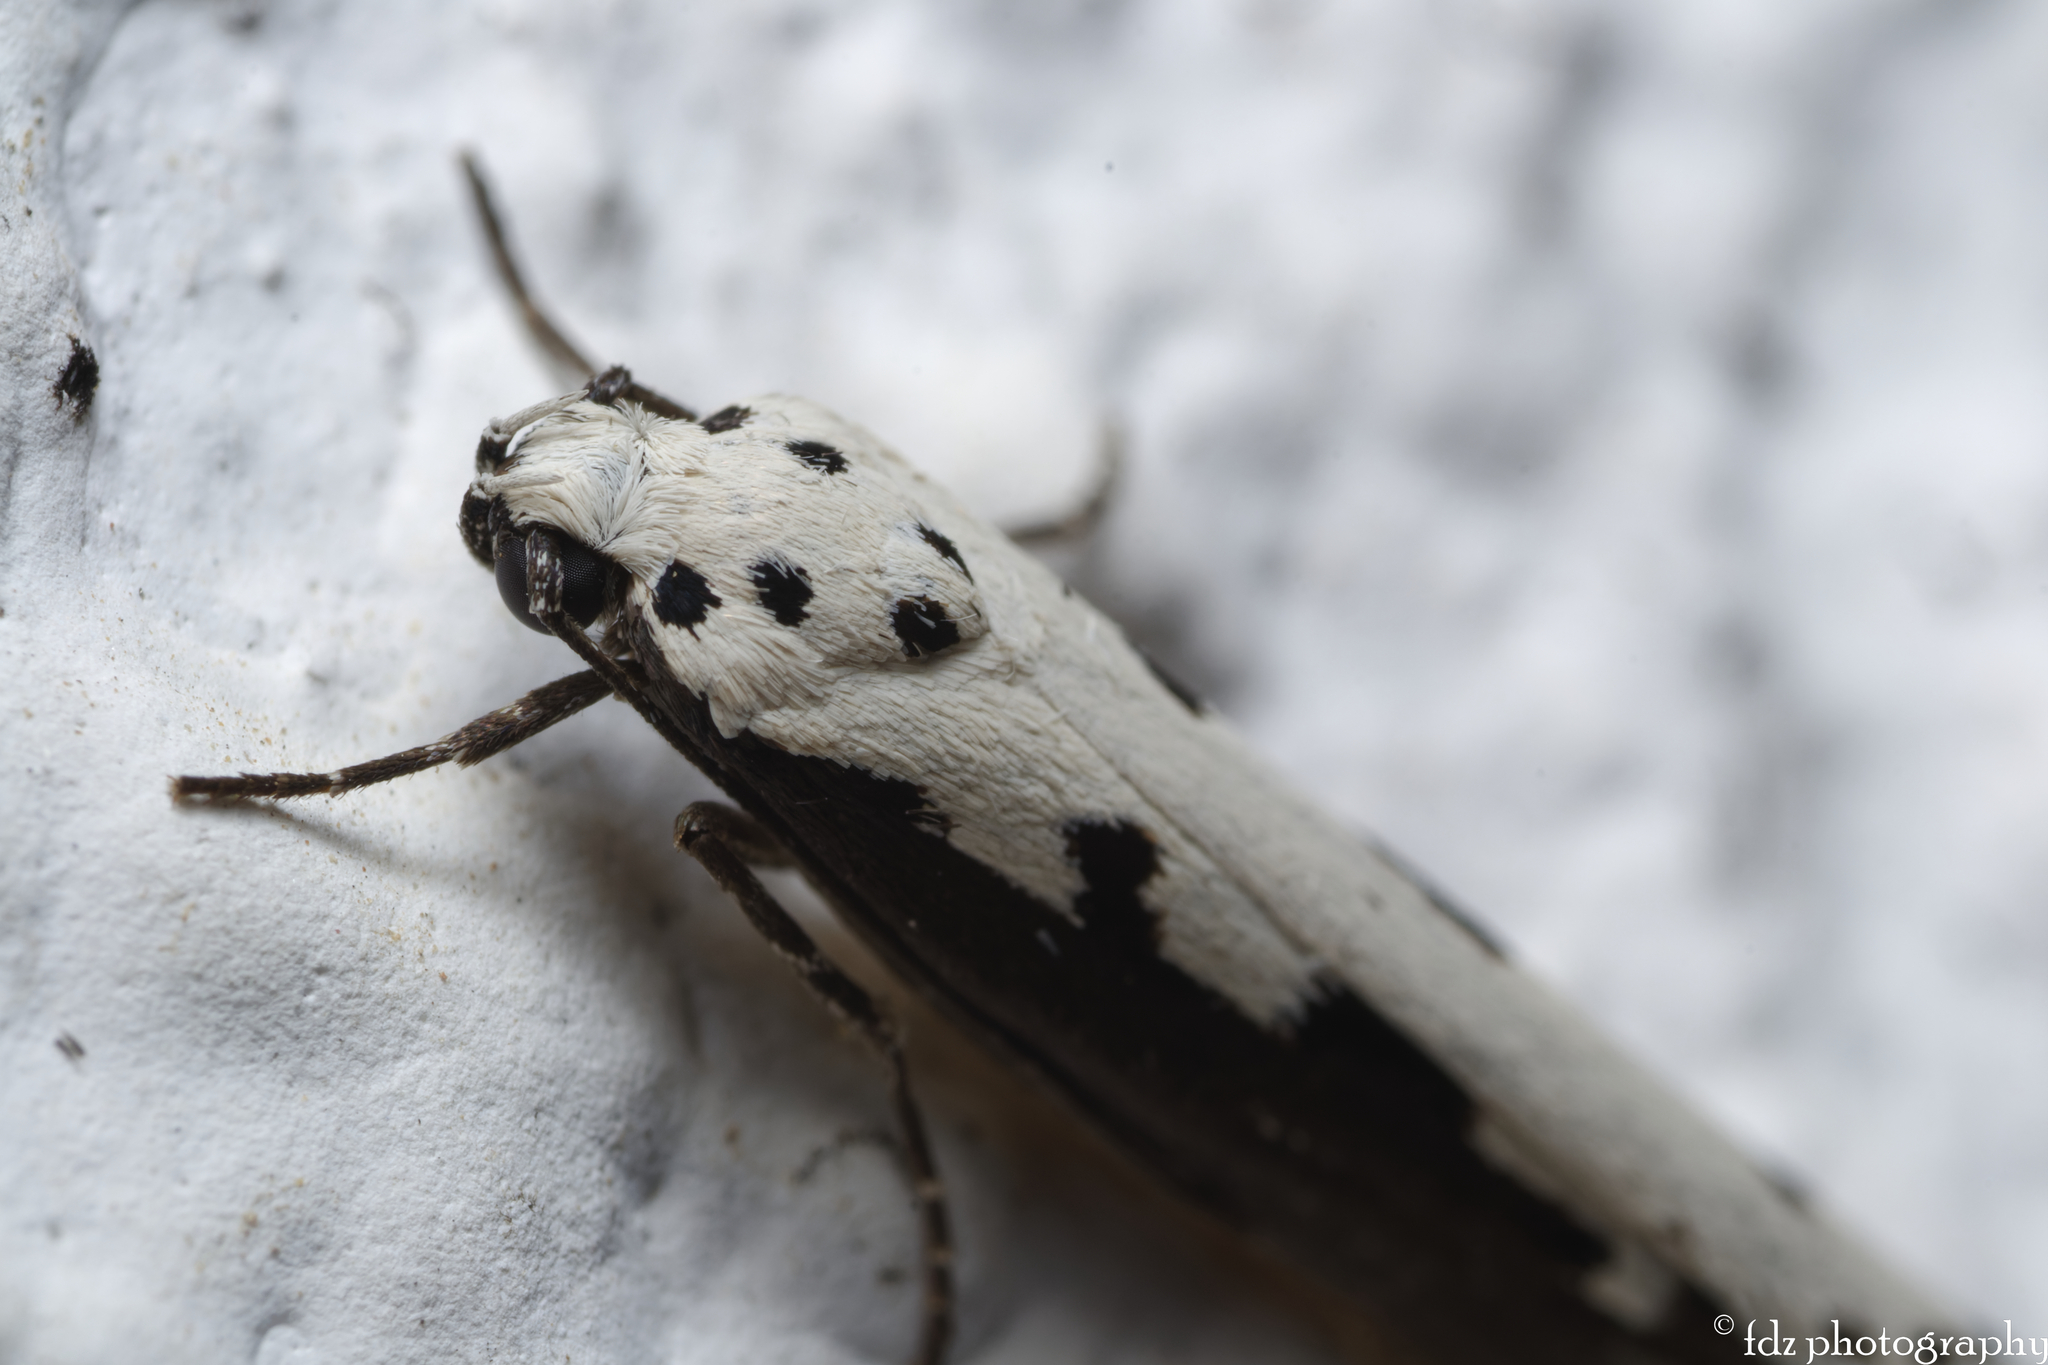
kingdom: Animalia
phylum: Arthropoda
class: Insecta
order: Lepidoptera
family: Ethmiidae
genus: Ethmia
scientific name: Ethmia bipunctella
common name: Bordered ermel
